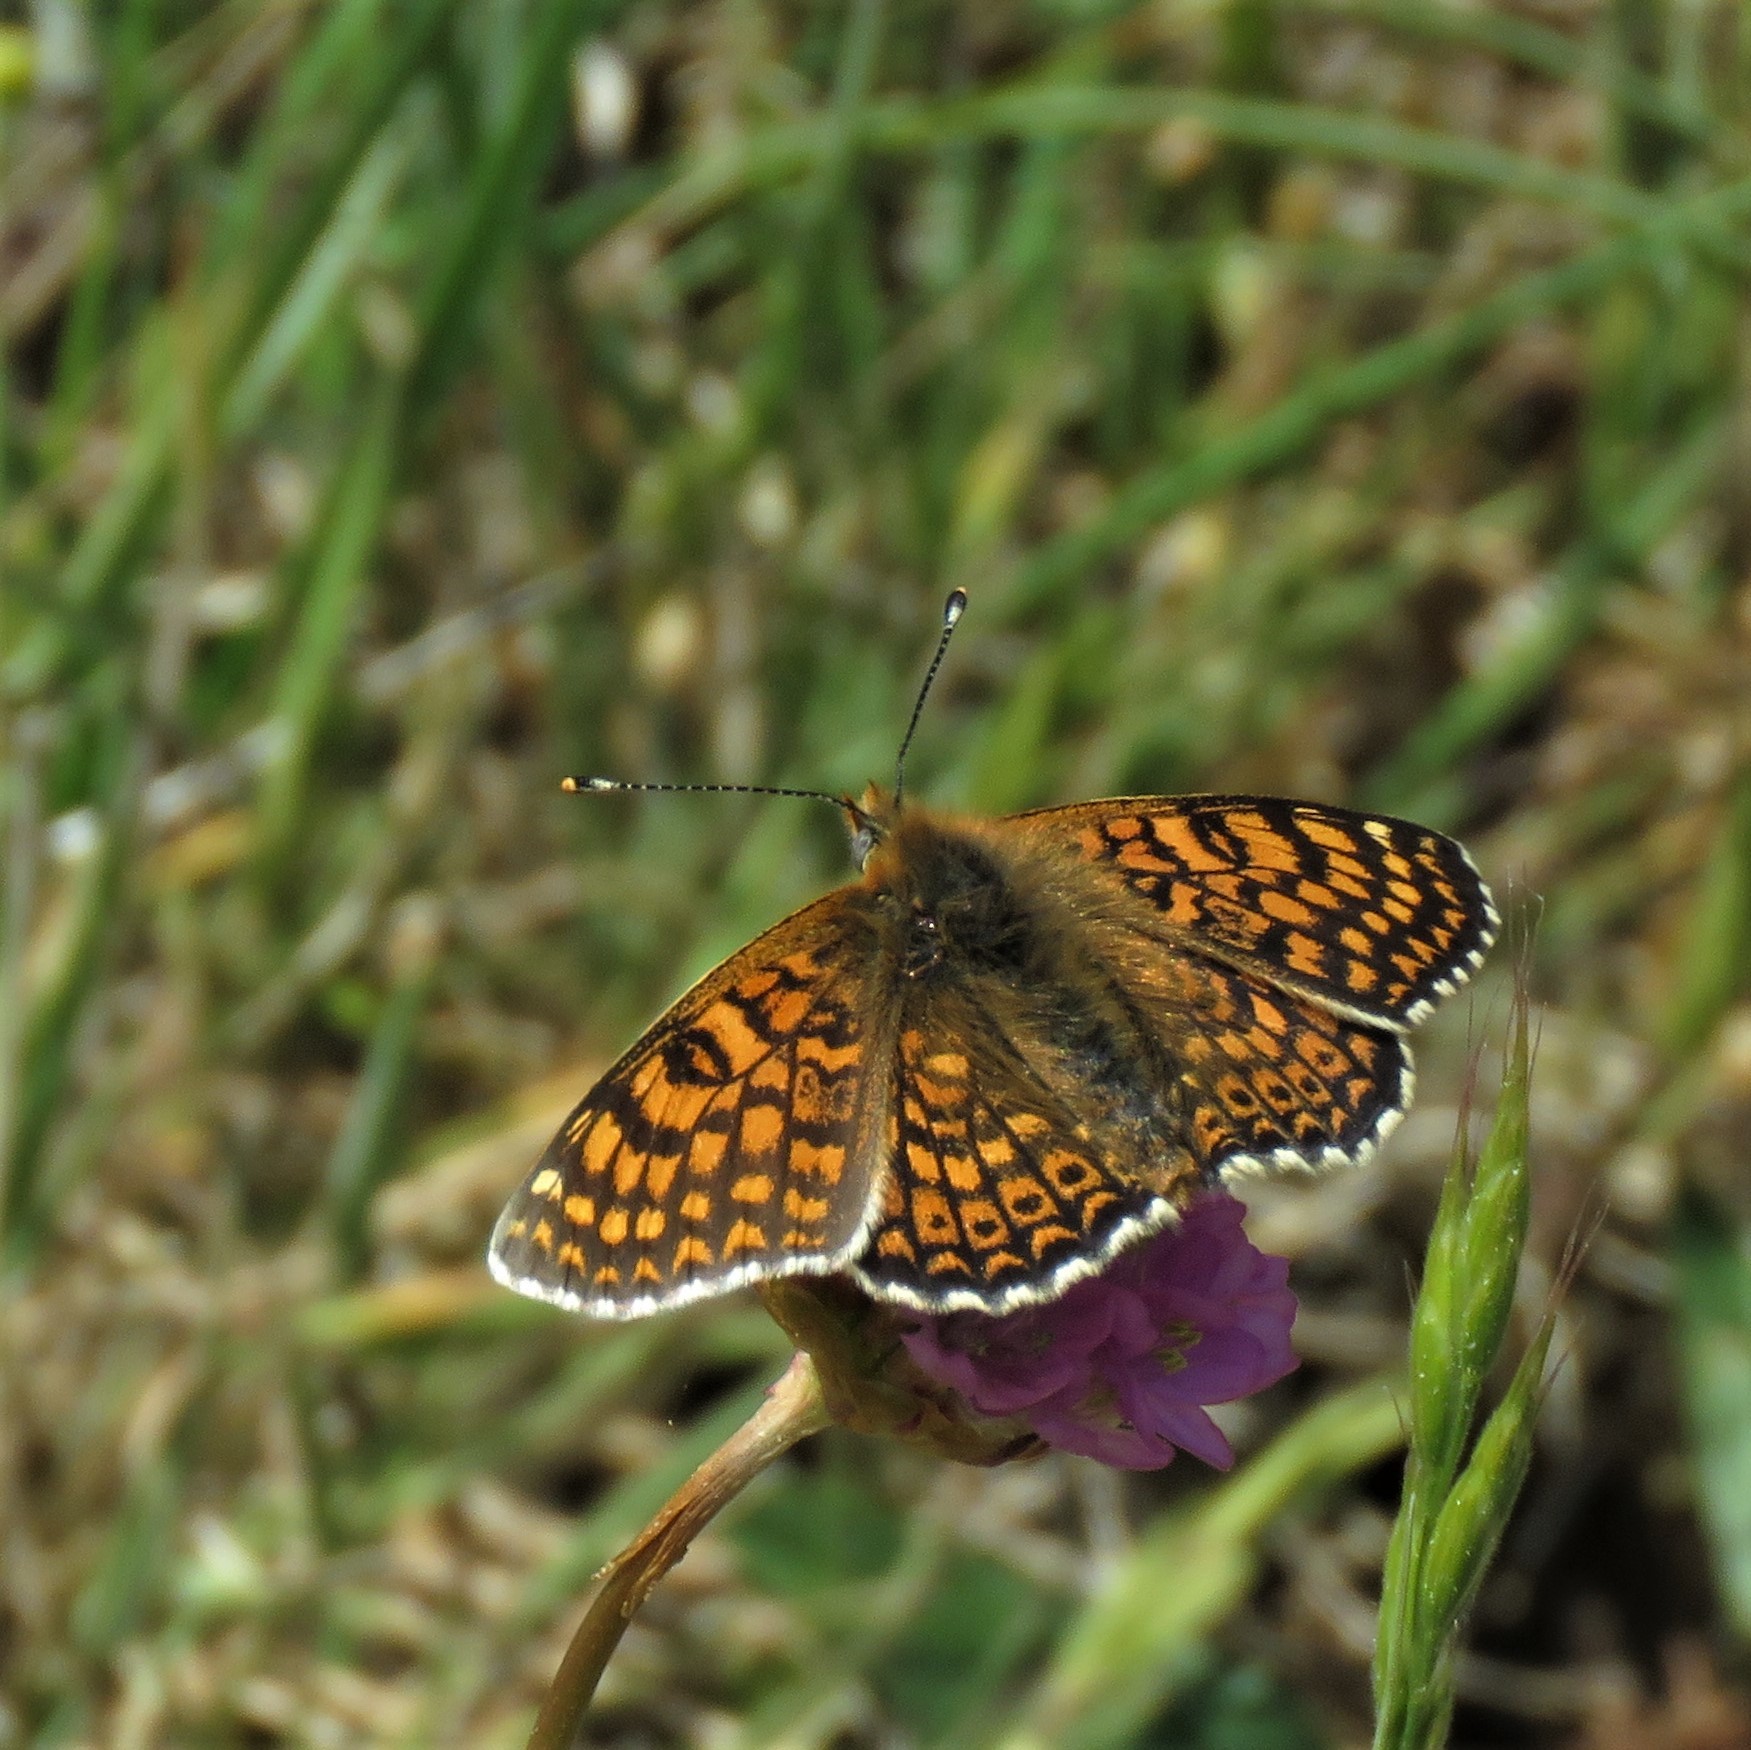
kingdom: Animalia
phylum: Arthropoda
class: Insecta
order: Lepidoptera
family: Nymphalidae
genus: Melitaea
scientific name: Melitaea cinxia
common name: Glanville fritillary
